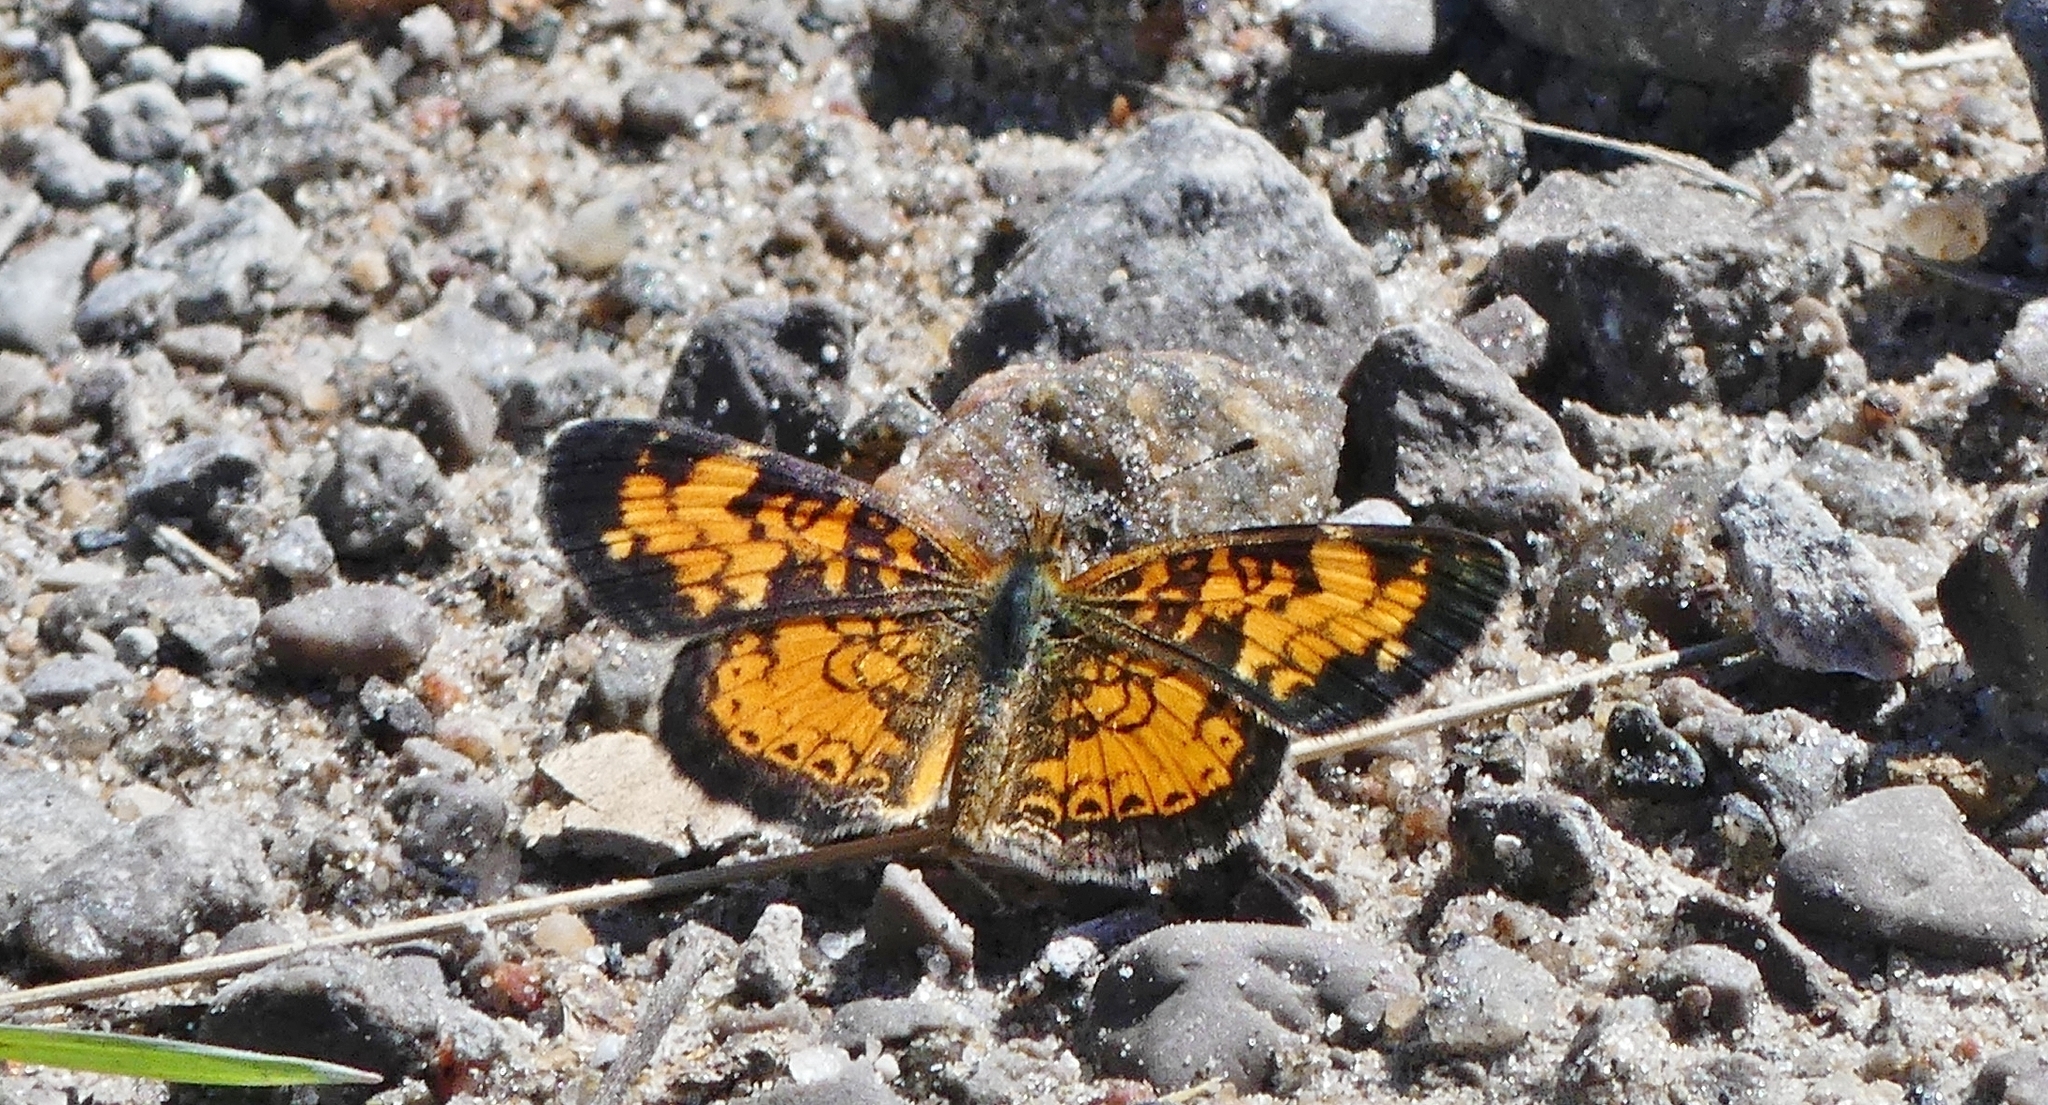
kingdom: Animalia
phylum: Arthropoda
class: Insecta
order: Lepidoptera
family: Nymphalidae
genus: Phyciodes
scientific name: Phyciodes tharos
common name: Pearl crescent
